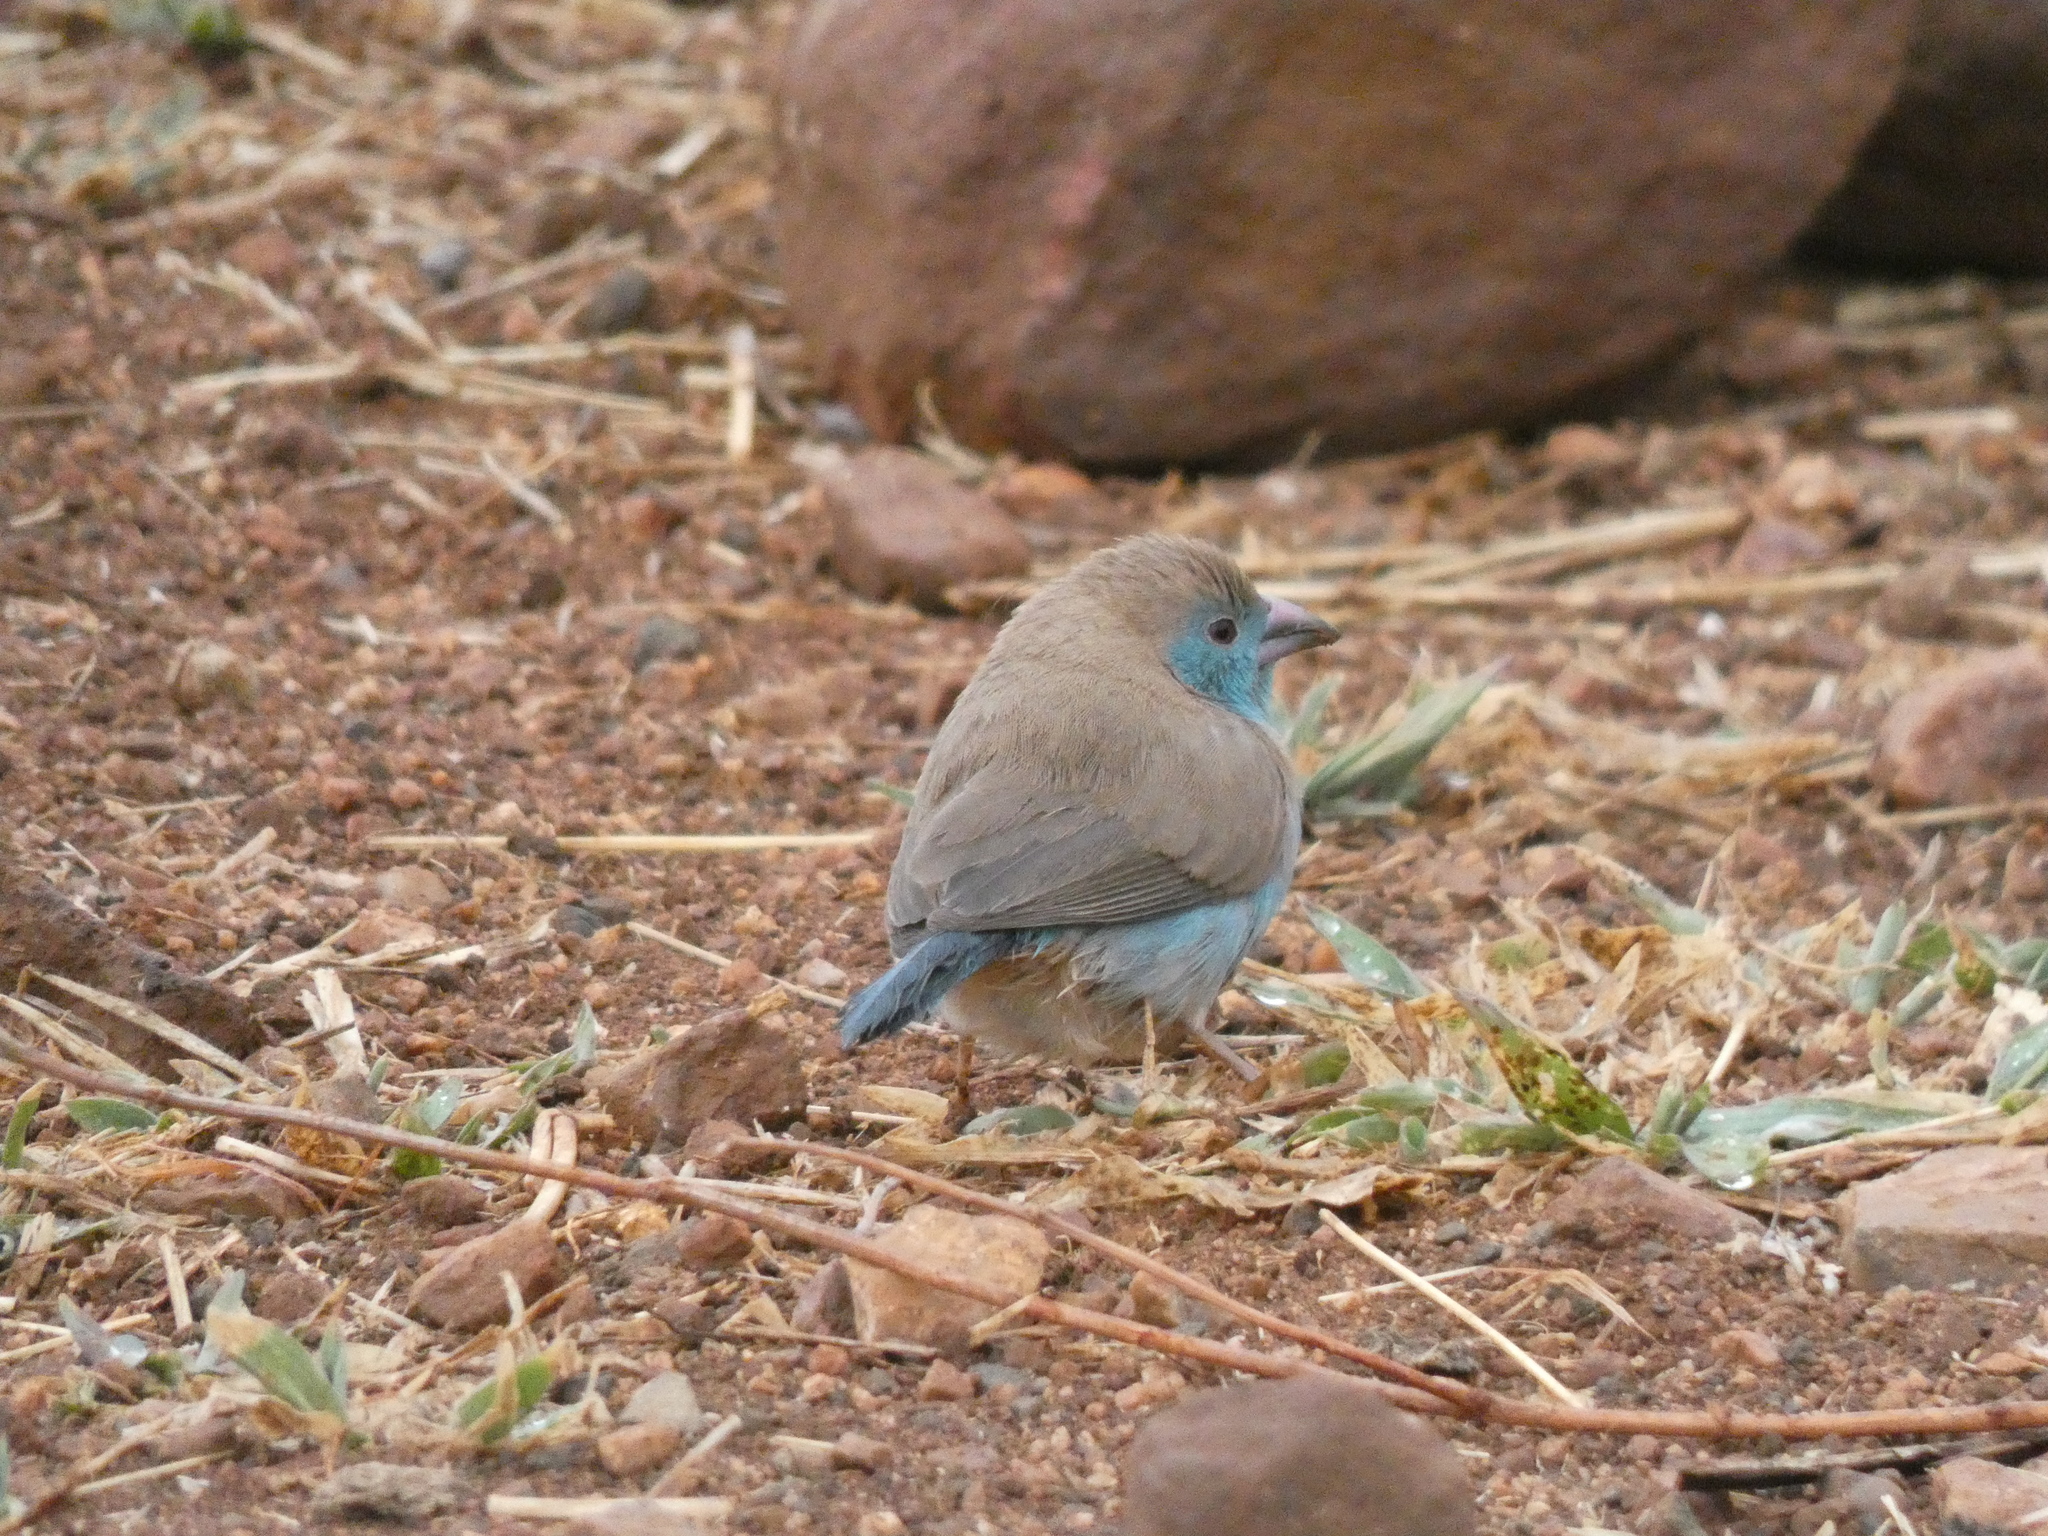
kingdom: Animalia
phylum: Chordata
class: Aves
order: Passeriformes
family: Estrildidae
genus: Uraeginthus
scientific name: Uraeginthus angolensis
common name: Blue waxbill
